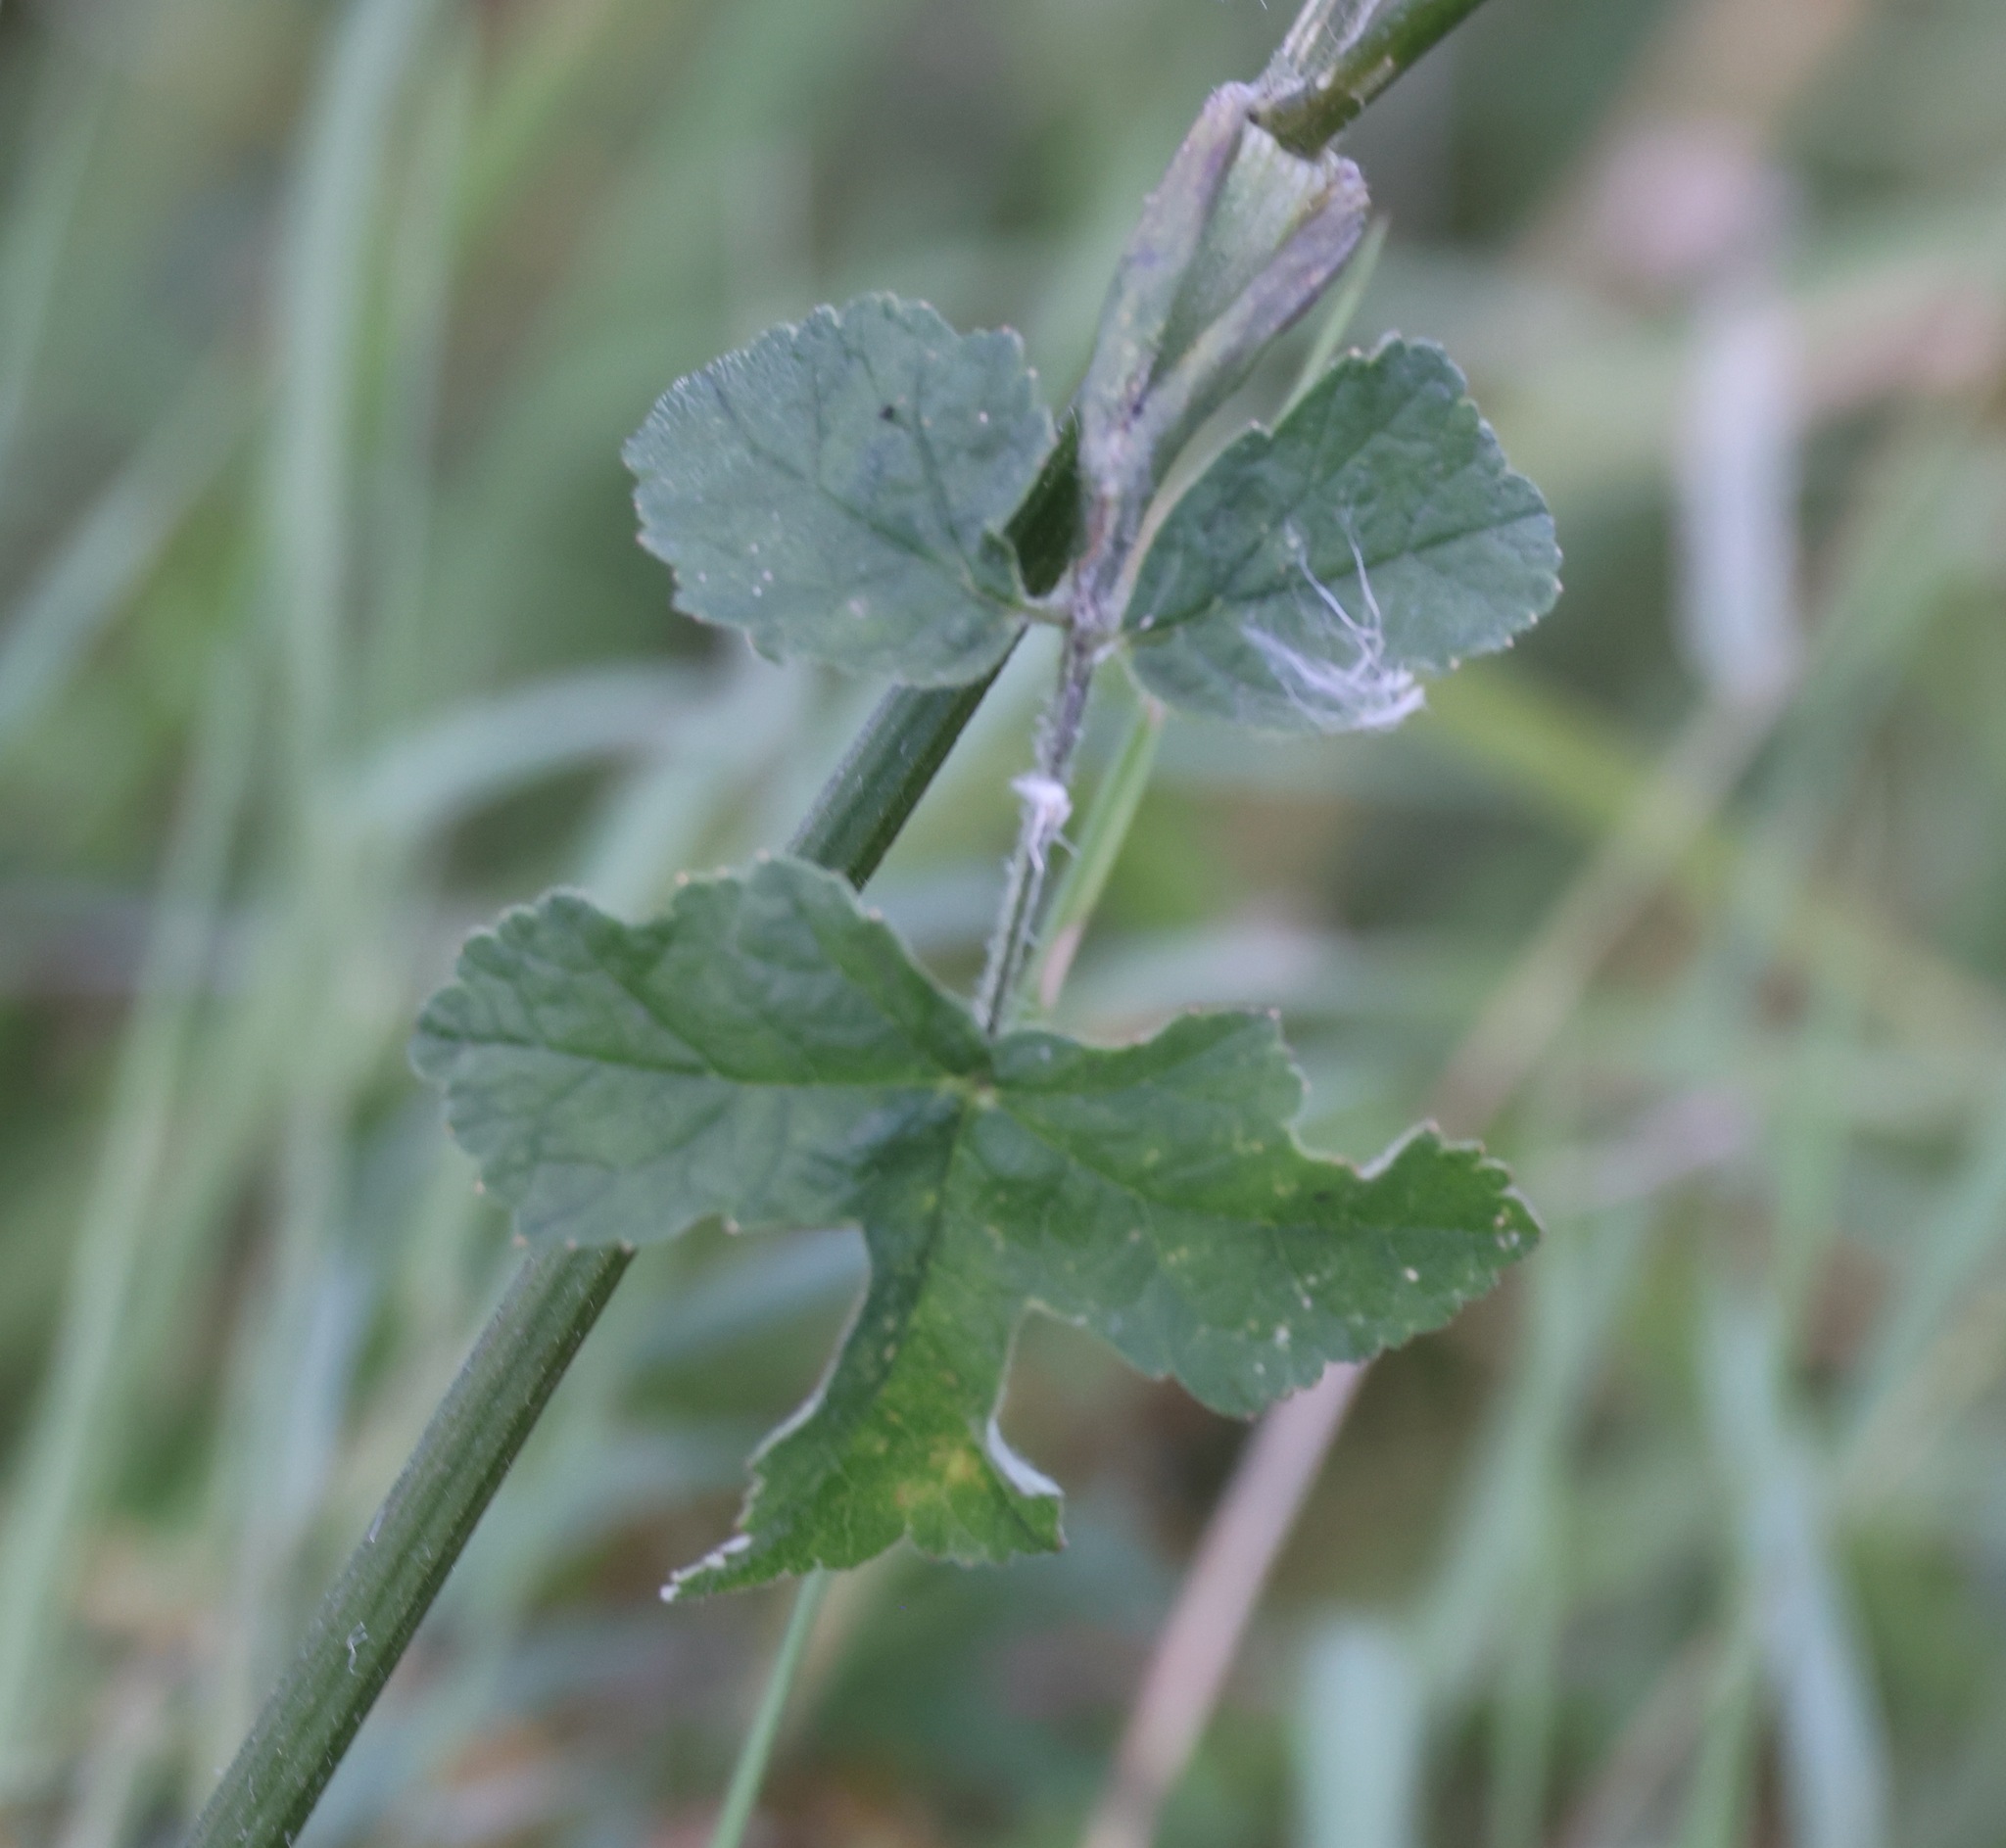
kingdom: Plantae
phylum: Tracheophyta
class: Magnoliopsida
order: Apiales
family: Apiaceae
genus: Heracleum
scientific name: Heracleum sphondylium
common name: Hogweed
